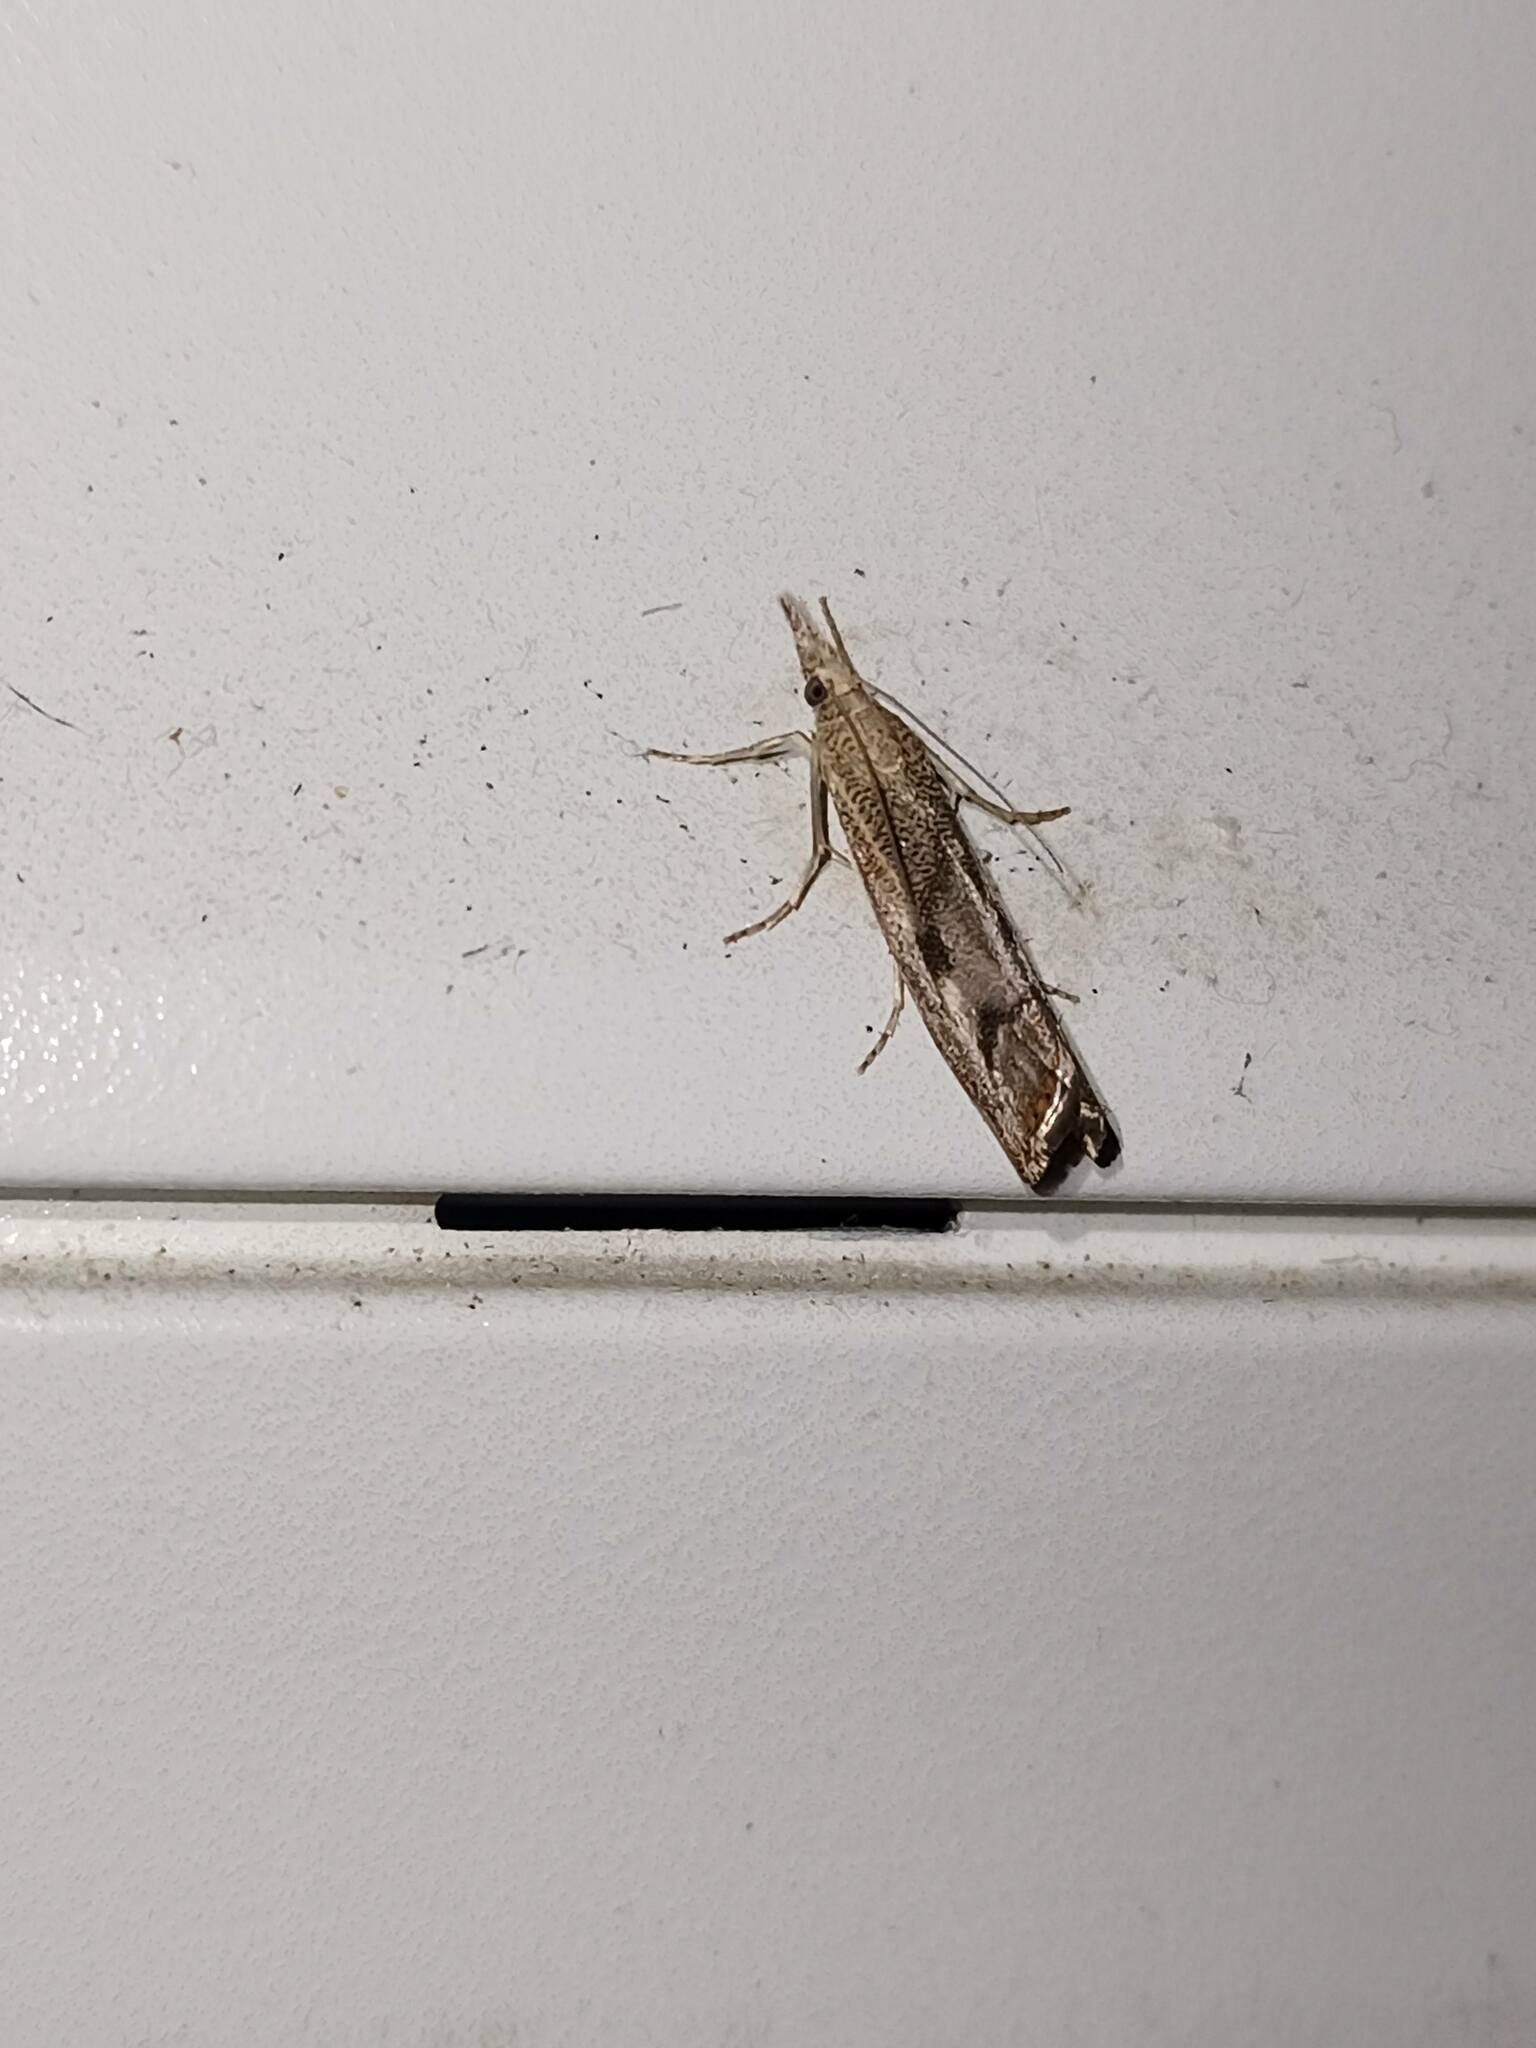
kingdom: Animalia
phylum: Arthropoda
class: Insecta
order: Lepidoptera
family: Crambidae
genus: Agriphila
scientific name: Agriphila geniculea
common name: Elbow-stripe grass-veneer
